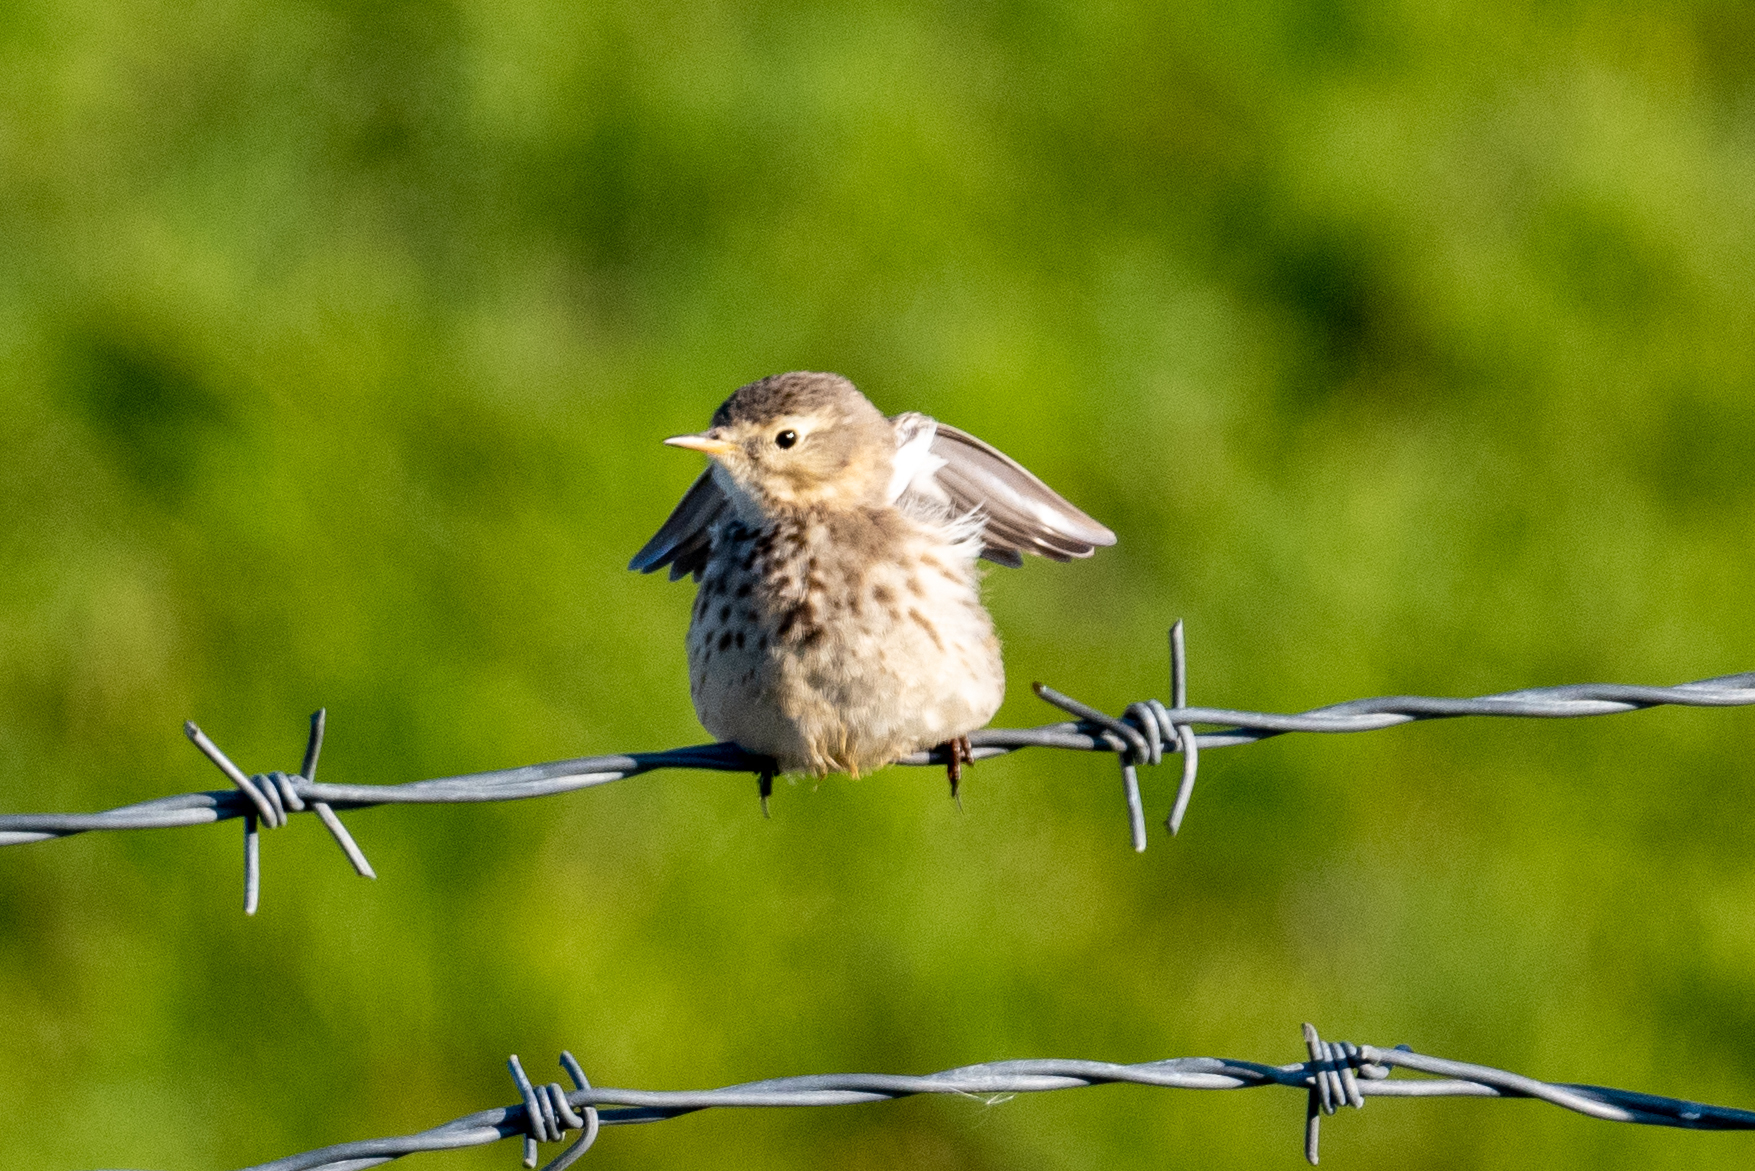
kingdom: Animalia
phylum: Chordata
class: Aves
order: Passeriformes
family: Motacillidae
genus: Anthus
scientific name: Anthus rubescens
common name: Buff-bellied pipit
